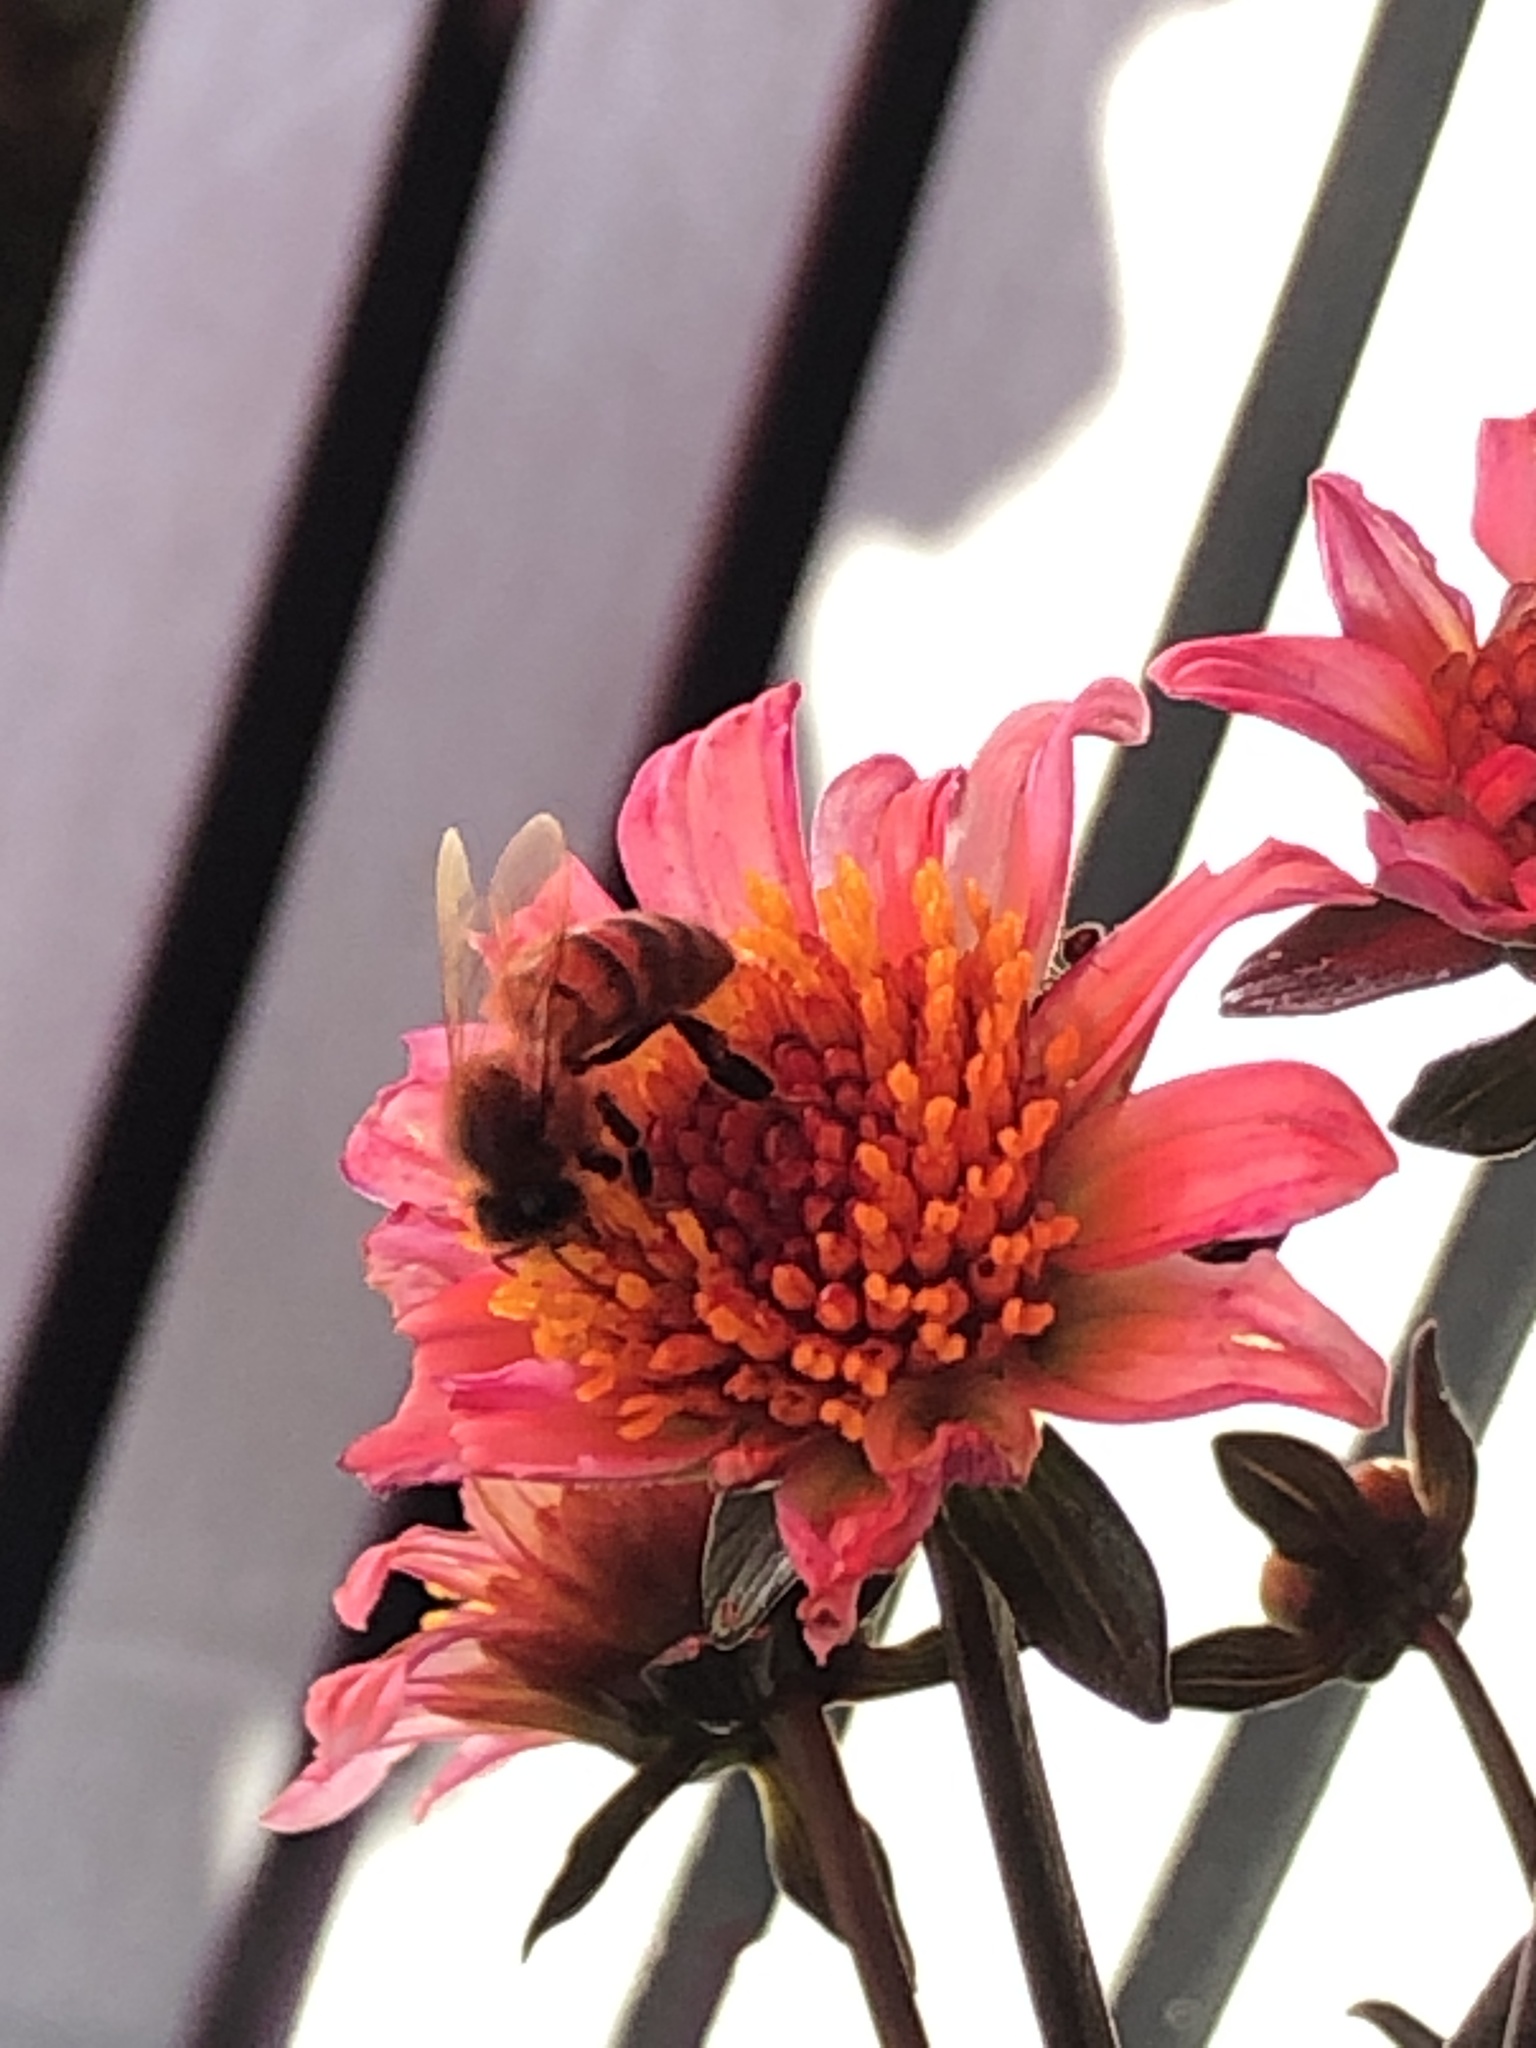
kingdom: Animalia
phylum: Arthropoda
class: Insecta
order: Hymenoptera
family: Apidae
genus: Apis
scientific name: Apis mellifera
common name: Honey bee
